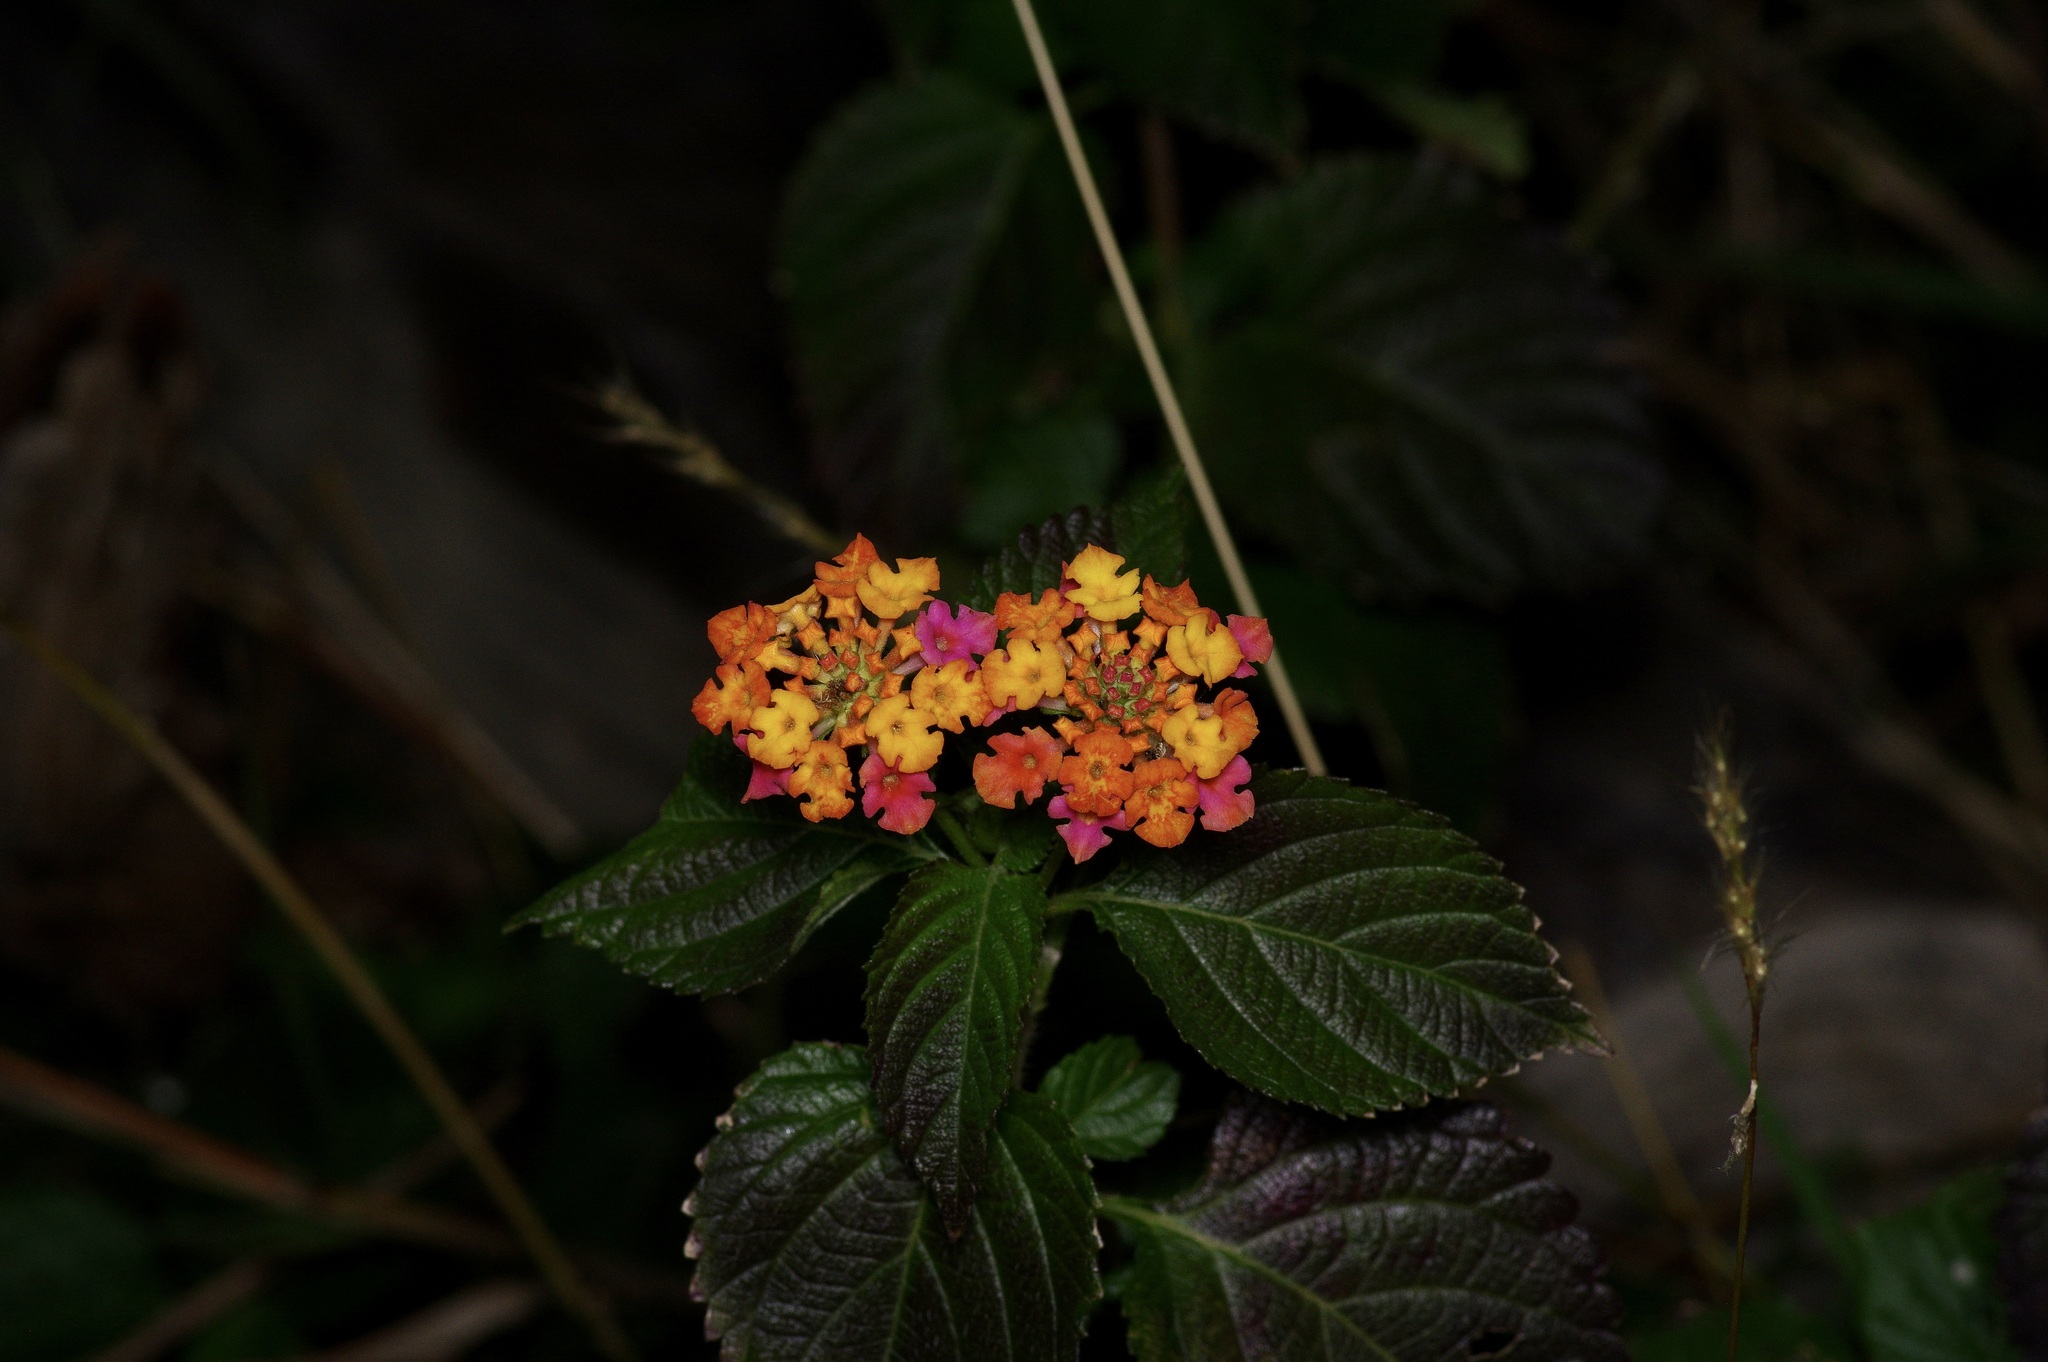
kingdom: Plantae
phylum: Tracheophyta
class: Magnoliopsida
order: Lamiales
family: Verbenaceae
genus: Lantana
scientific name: Lantana strigocamara
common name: Lantana
